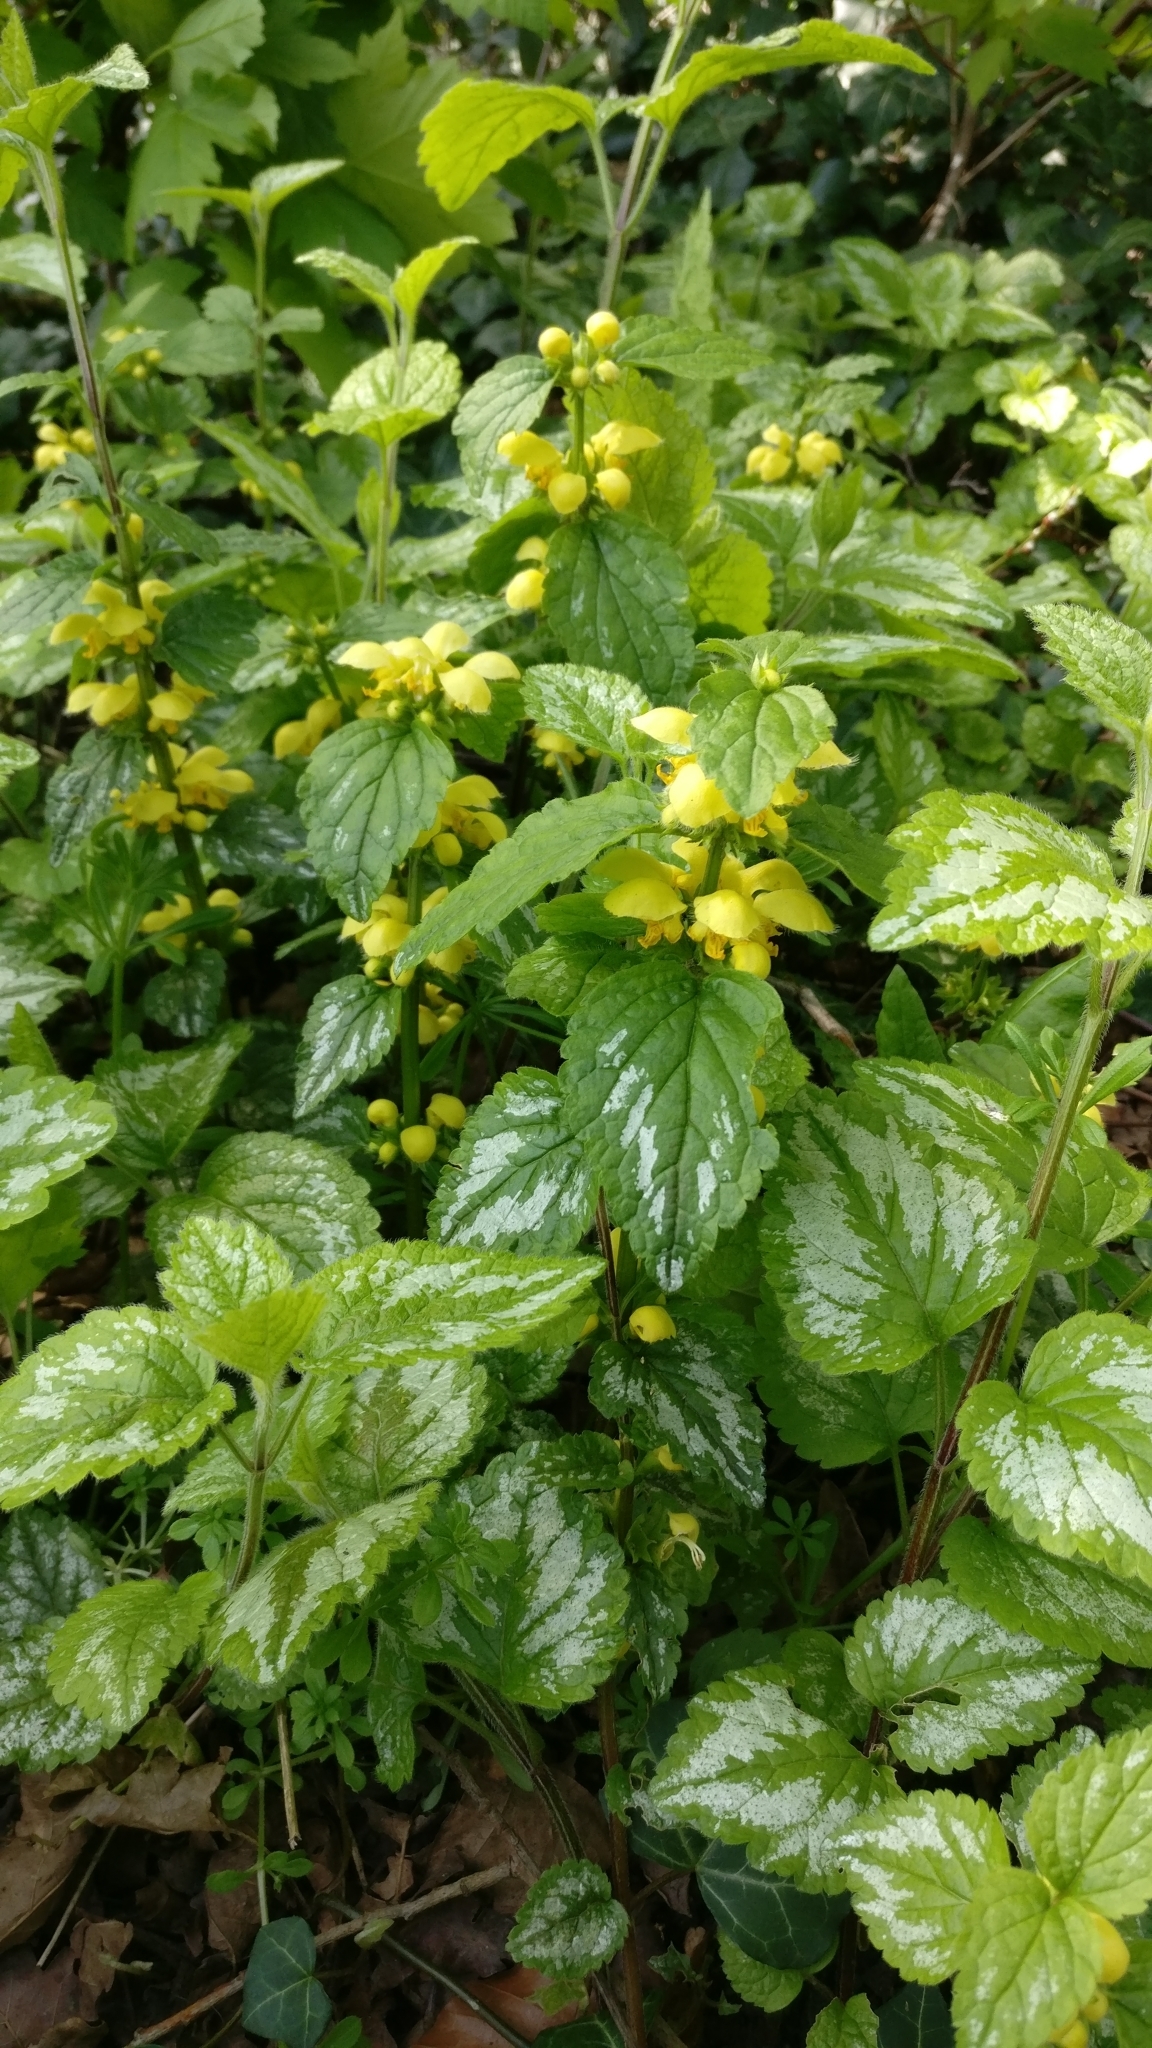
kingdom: Plantae
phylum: Tracheophyta
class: Magnoliopsida
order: Lamiales
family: Lamiaceae
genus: Lamium
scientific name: Lamium galeobdolon
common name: Yellow archangel
